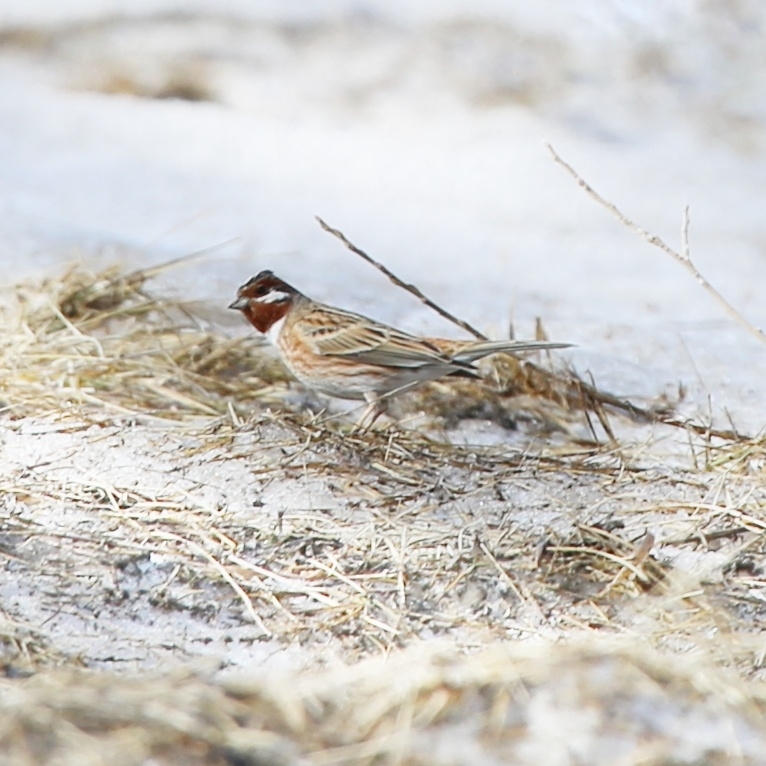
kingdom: Animalia
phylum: Chordata
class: Aves
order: Passeriformes
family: Emberizidae
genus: Emberiza
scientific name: Emberiza leucocephalos
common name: Pine bunting
